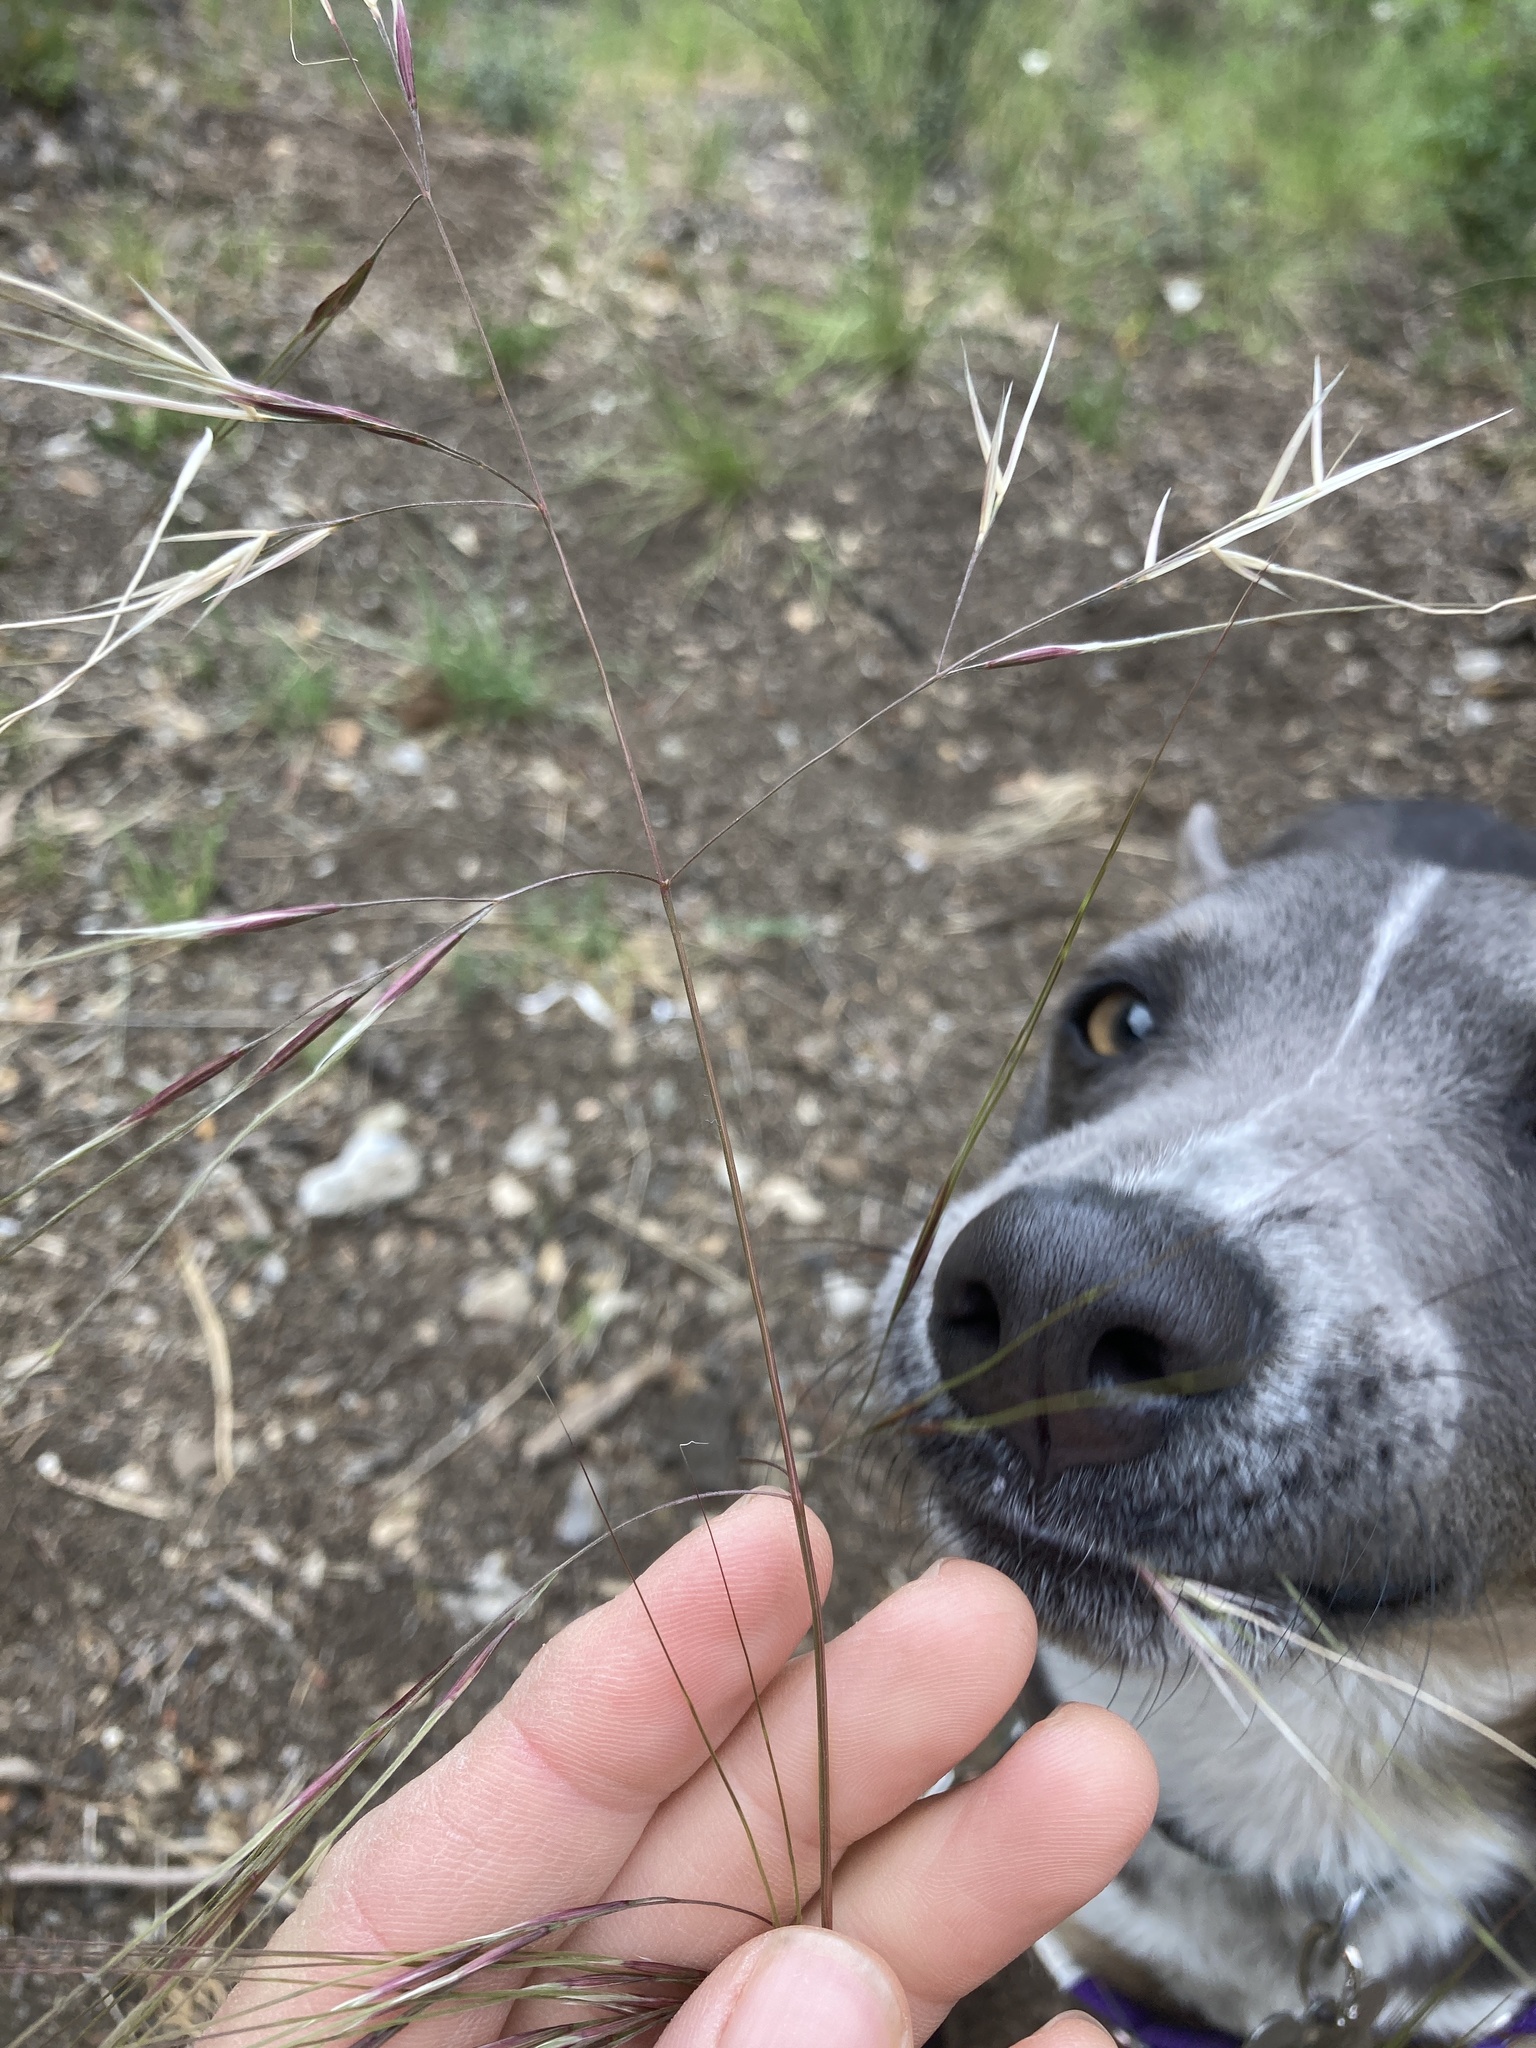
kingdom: Plantae
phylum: Tracheophyta
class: Liliopsida
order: Poales
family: Poaceae
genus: Nassella
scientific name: Nassella pulchra
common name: Purple needlegrass
